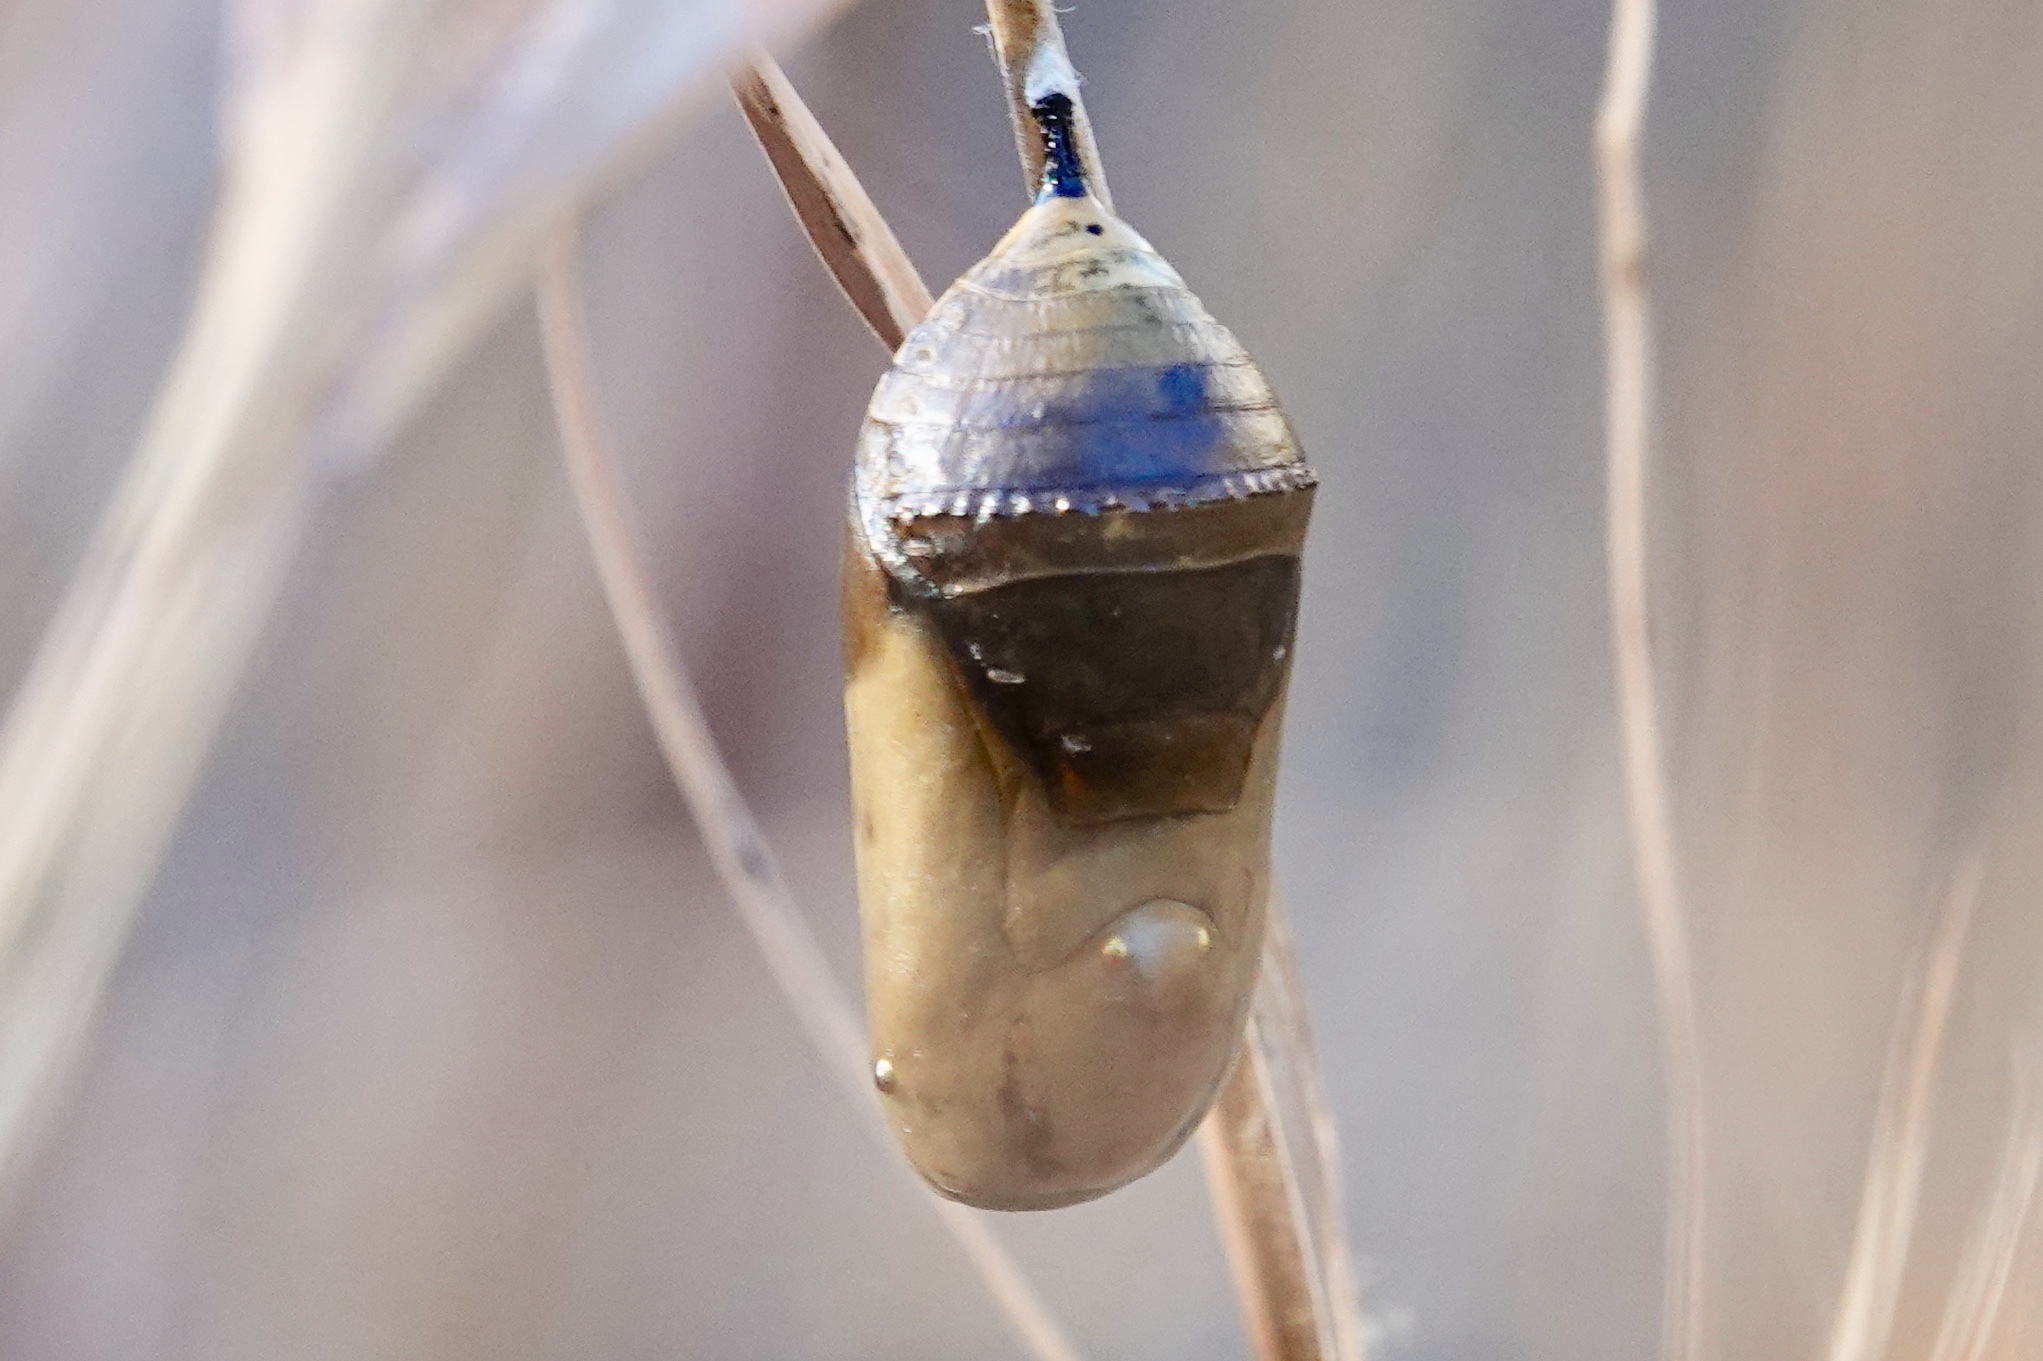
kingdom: Animalia
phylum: Arthropoda
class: Insecta
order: Lepidoptera
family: Nymphalidae
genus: Danaus
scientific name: Danaus plexippus
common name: Monarch
